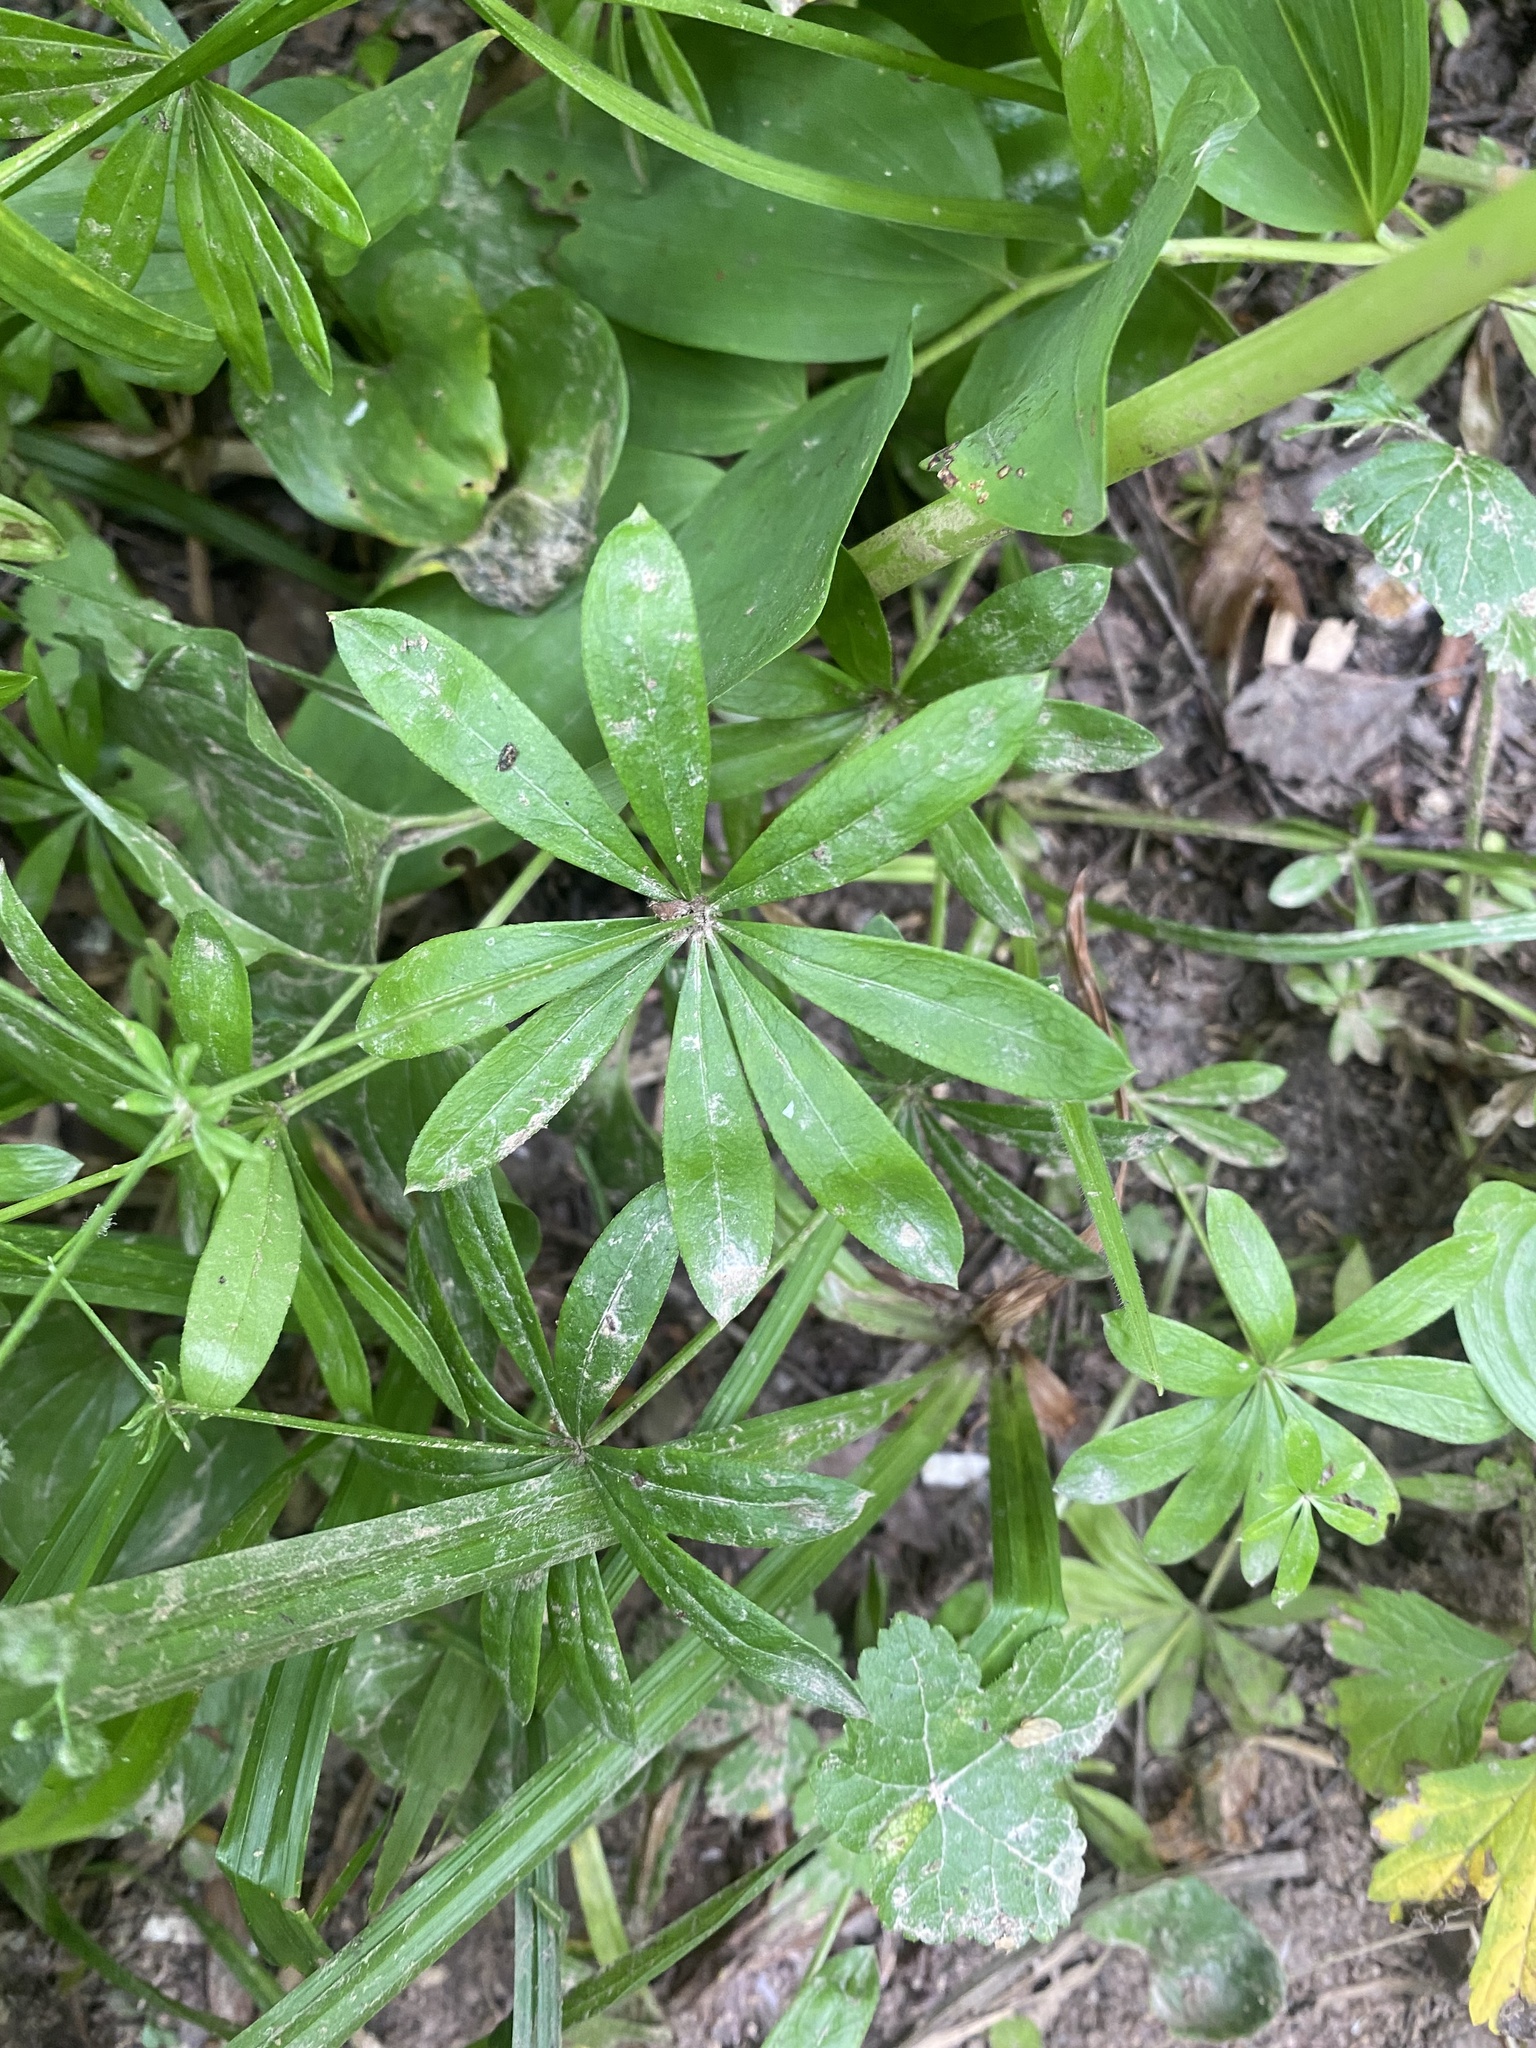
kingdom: Plantae
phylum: Tracheophyta
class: Magnoliopsida
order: Gentianales
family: Rubiaceae
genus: Galium
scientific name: Galium odoratum
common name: Sweet woodruff
